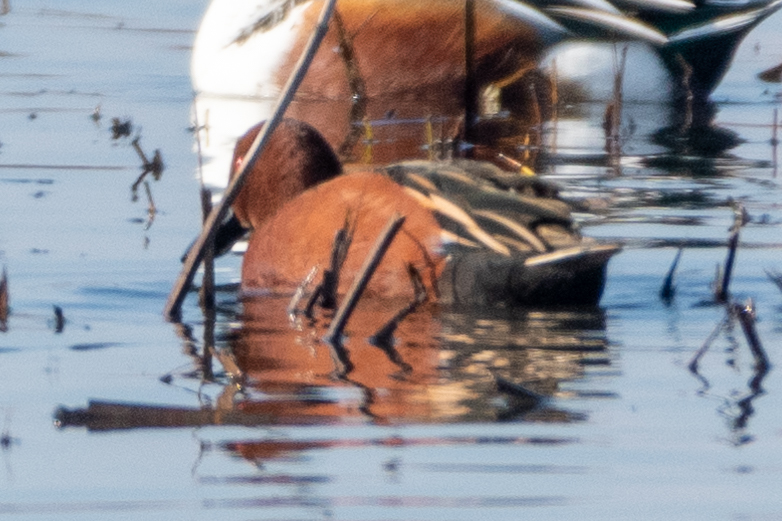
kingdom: Animalia
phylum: Chordata
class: Aves
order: Anseriformes
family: Anatidae
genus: Spatula
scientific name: Spatula cyanoptera
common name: Cinnamon teal
